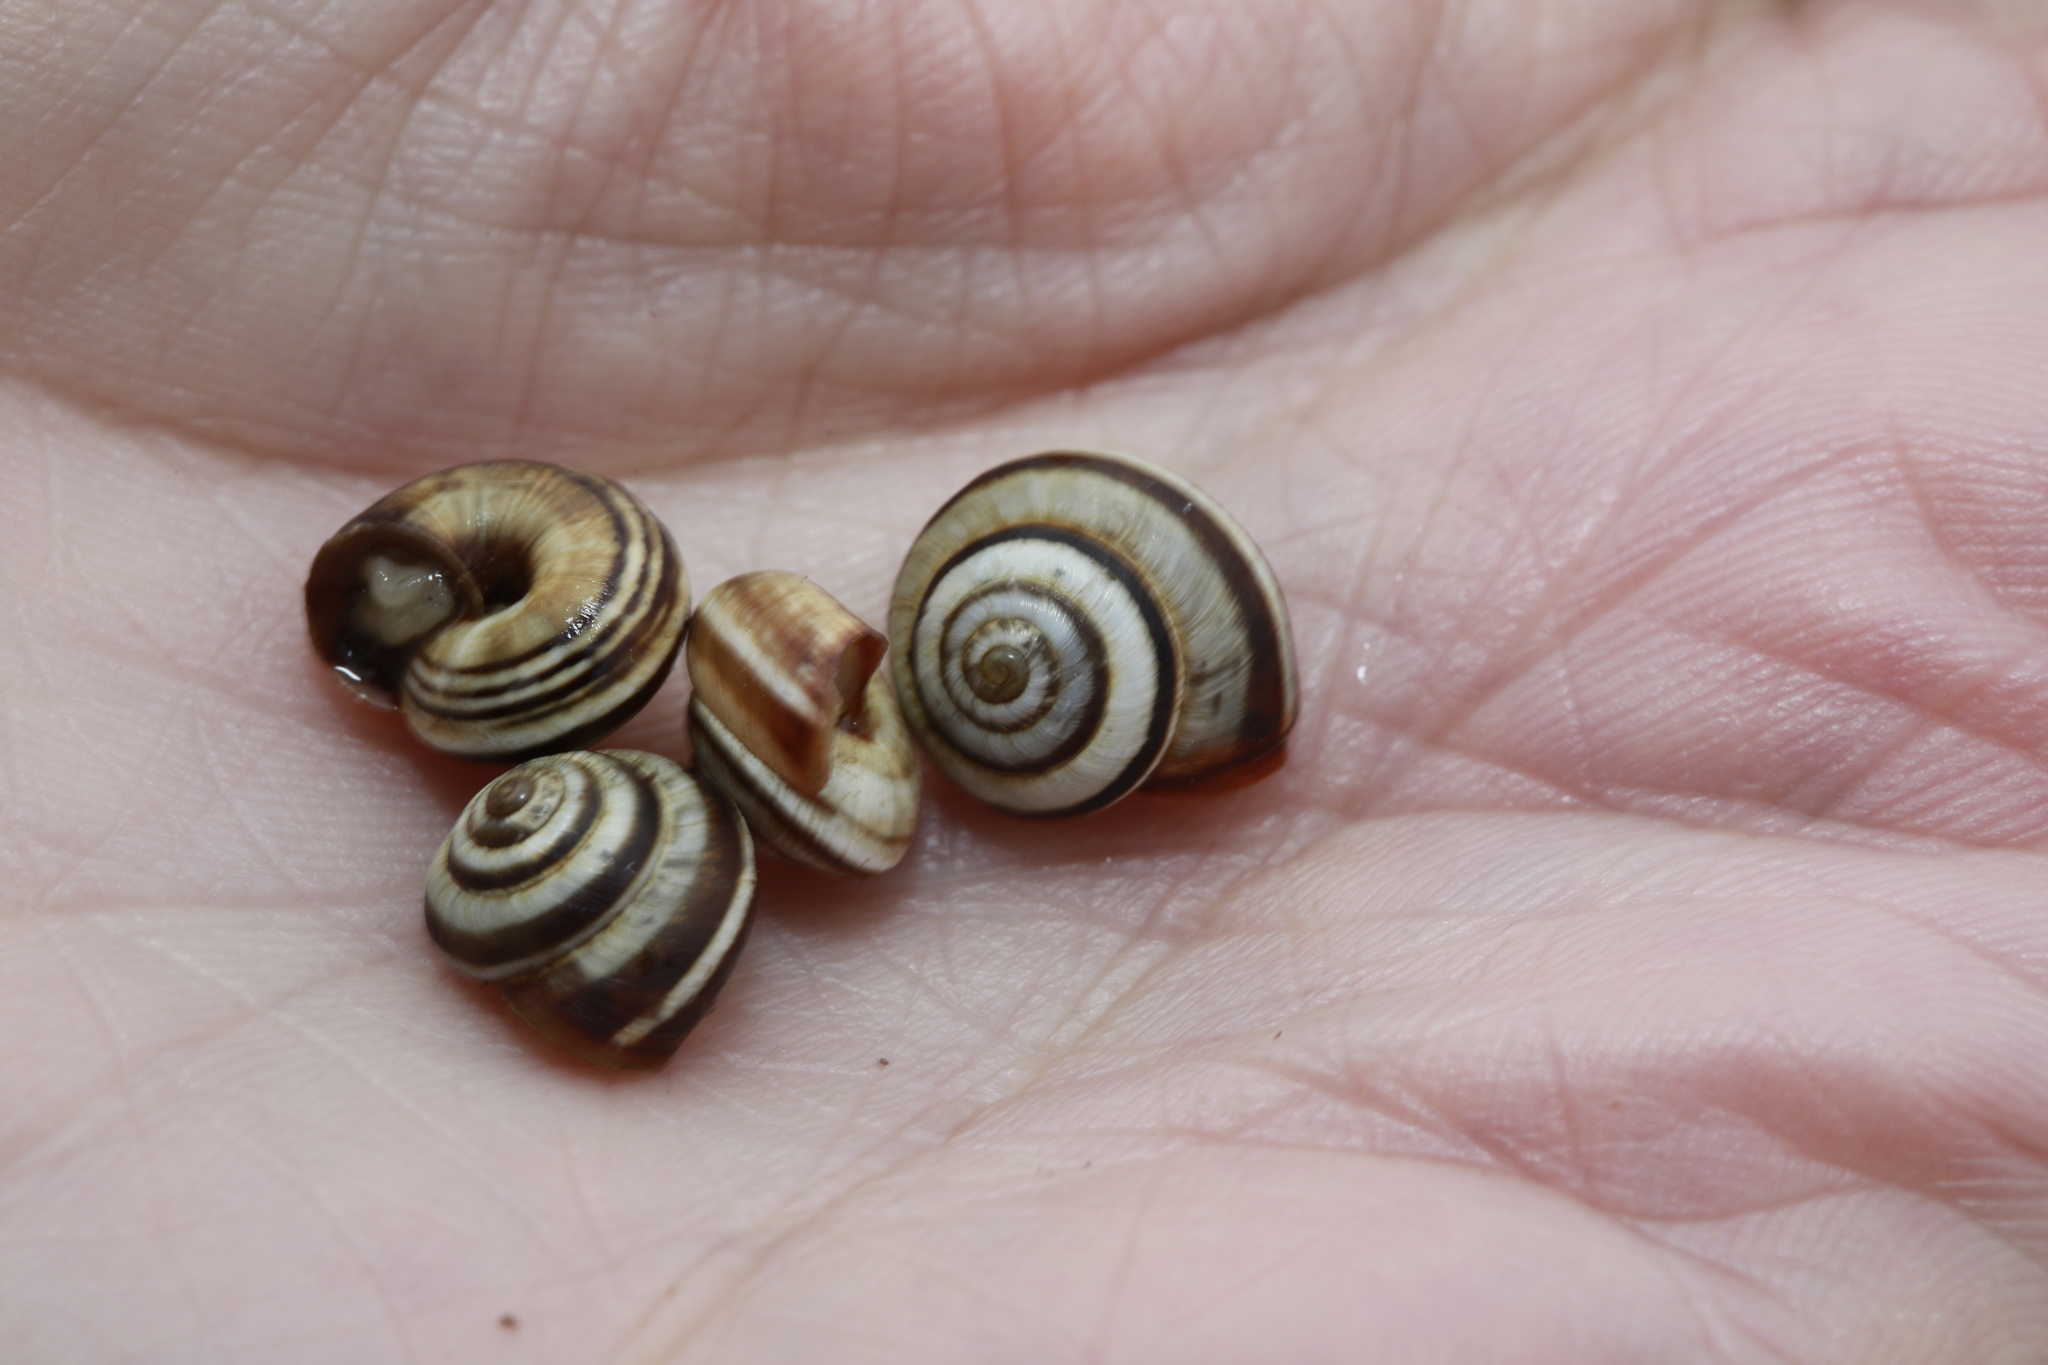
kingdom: Animalia
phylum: Mollusca
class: Gastropoda
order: Stylommatophora
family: Geomitridae
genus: Cernuella
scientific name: Cernuella virgata
